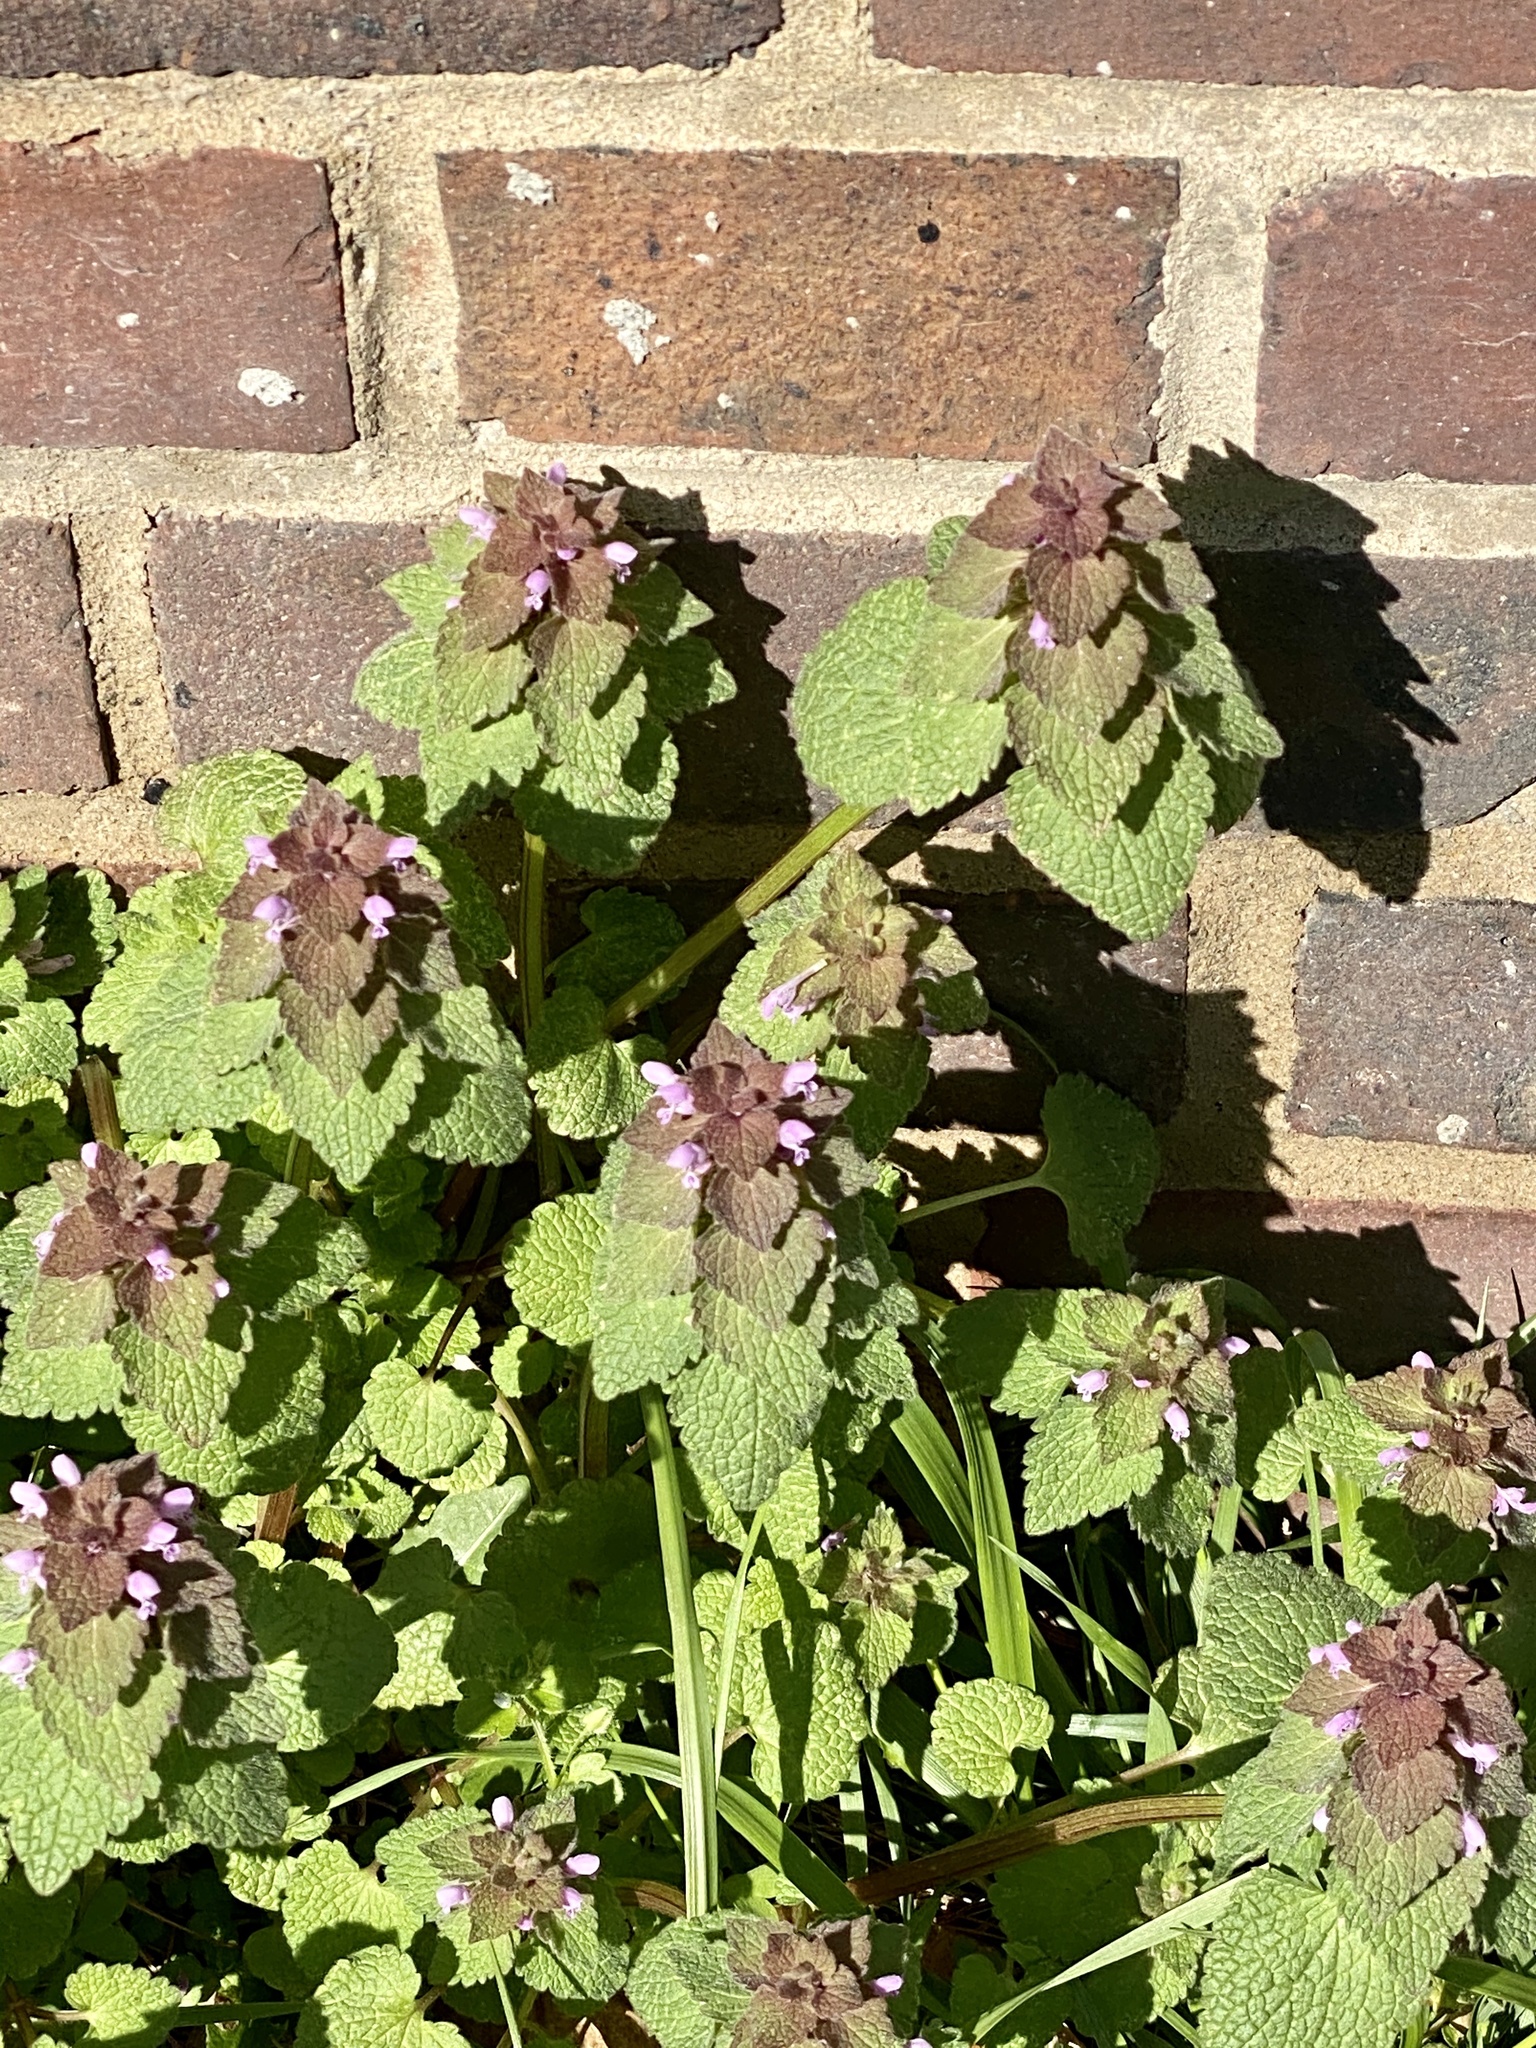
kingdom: Plantae
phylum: Tracheophyta
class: Magnoliopsida
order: Lamiales
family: Lamiaceae
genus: Lamium
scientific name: Lamium purpureum
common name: Red dead-nettle
